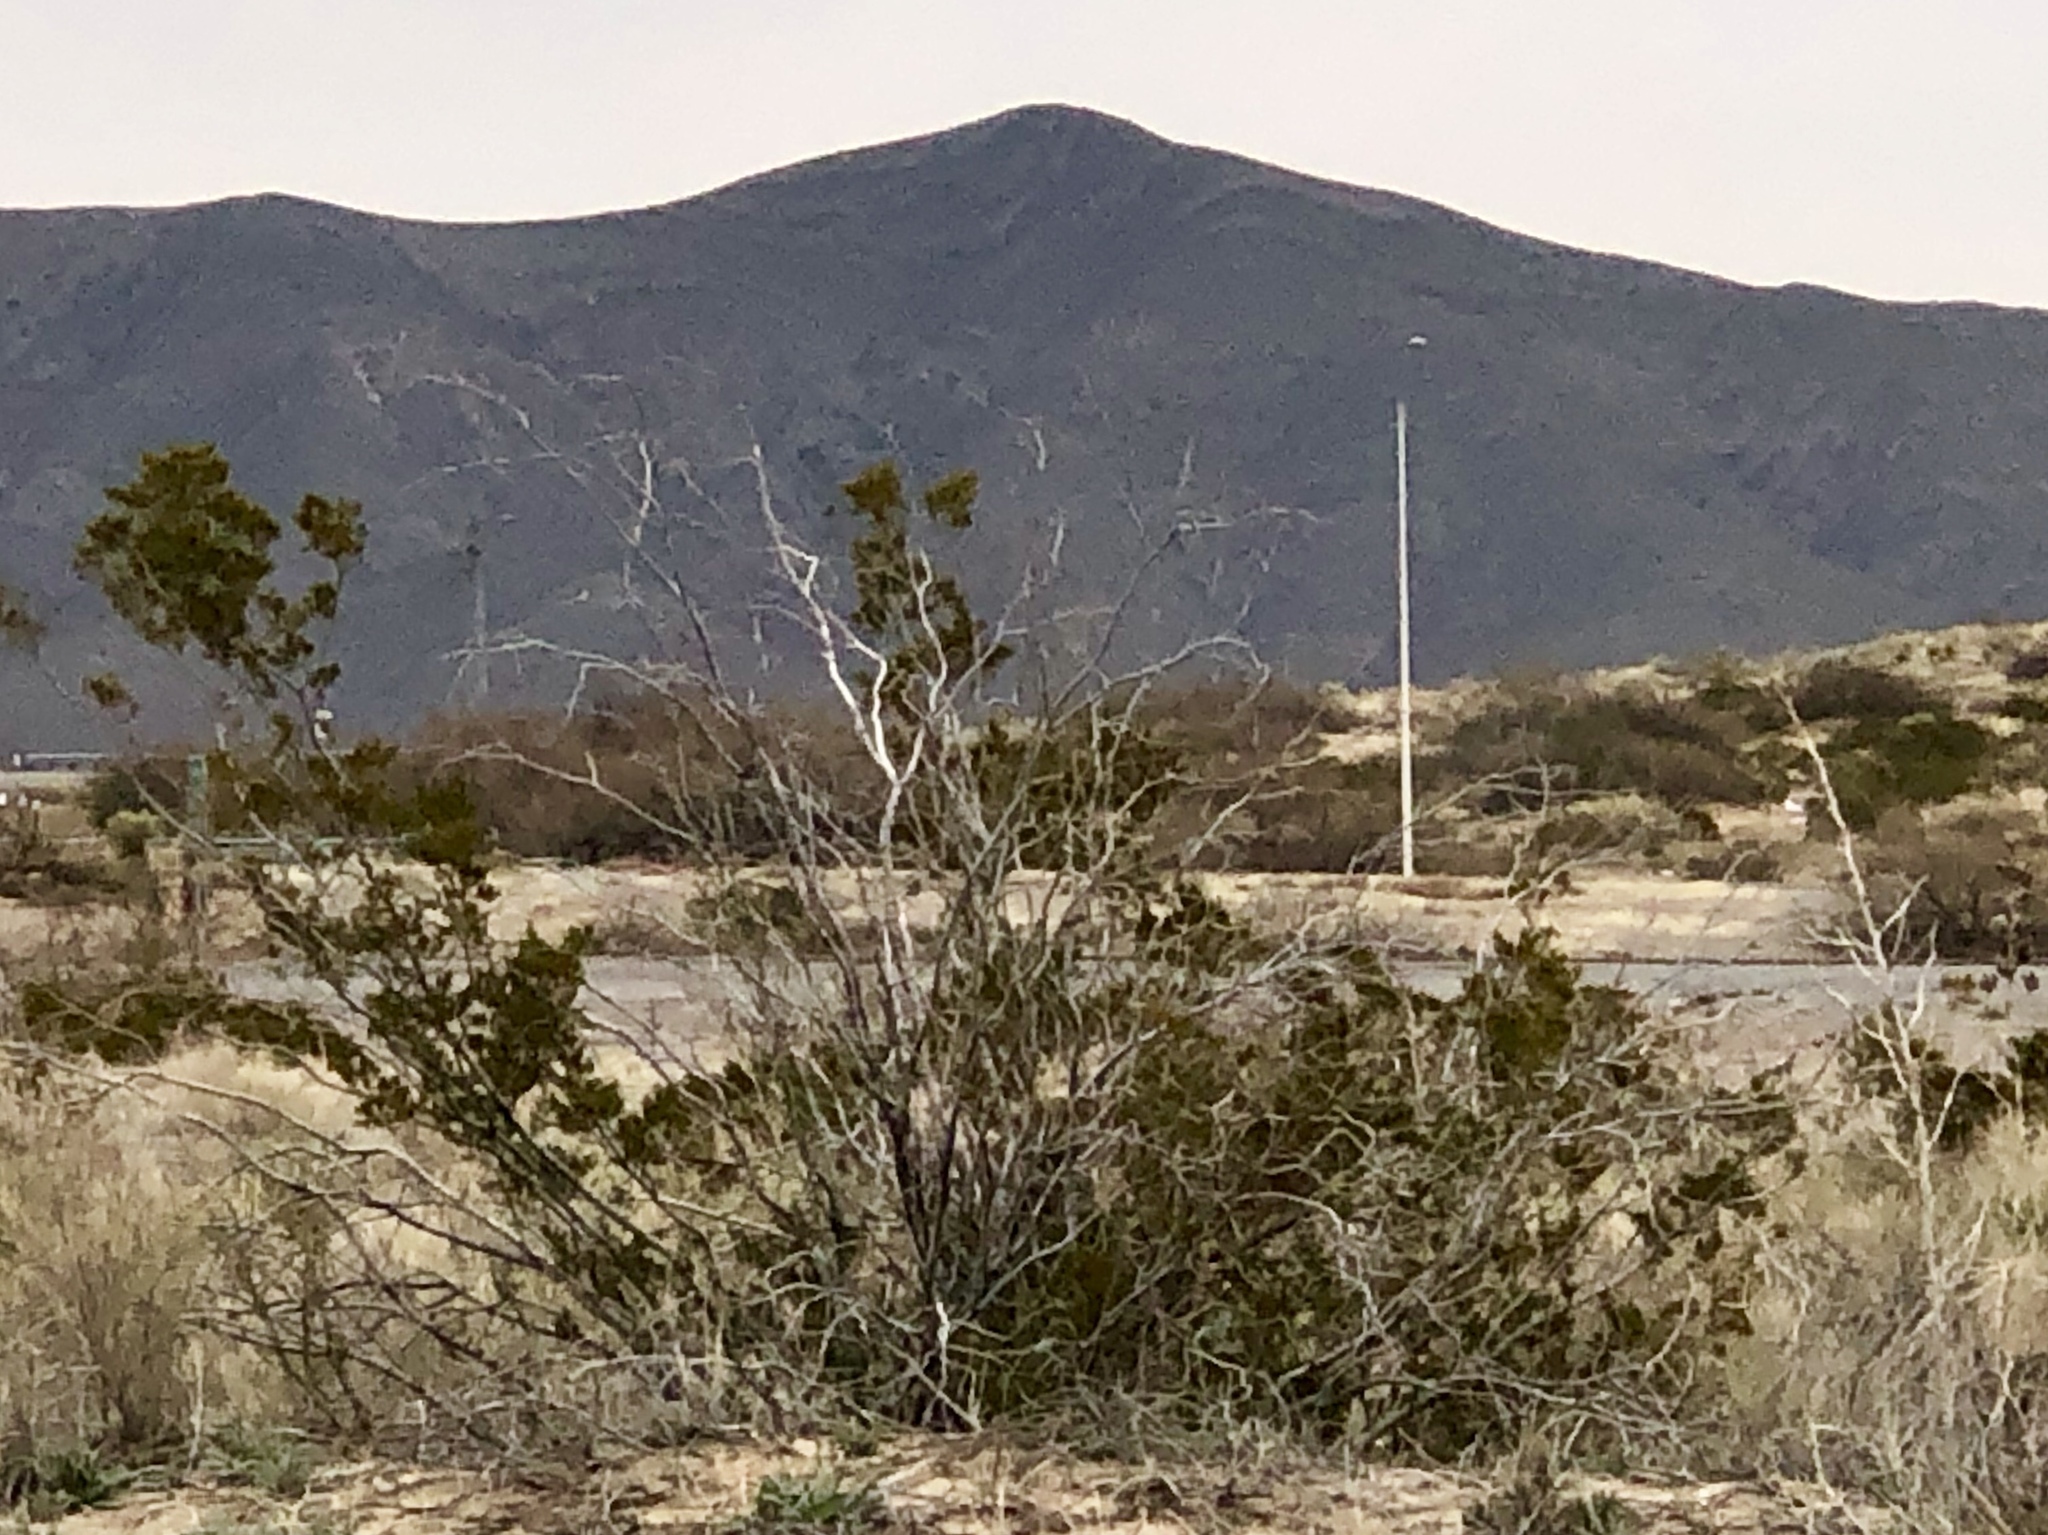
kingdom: Plantae
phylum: Tracheophyta
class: Magnoliopsida
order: Zygophyllales
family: Zygophyllaceae
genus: Larrea
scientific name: Larrea tridentata
